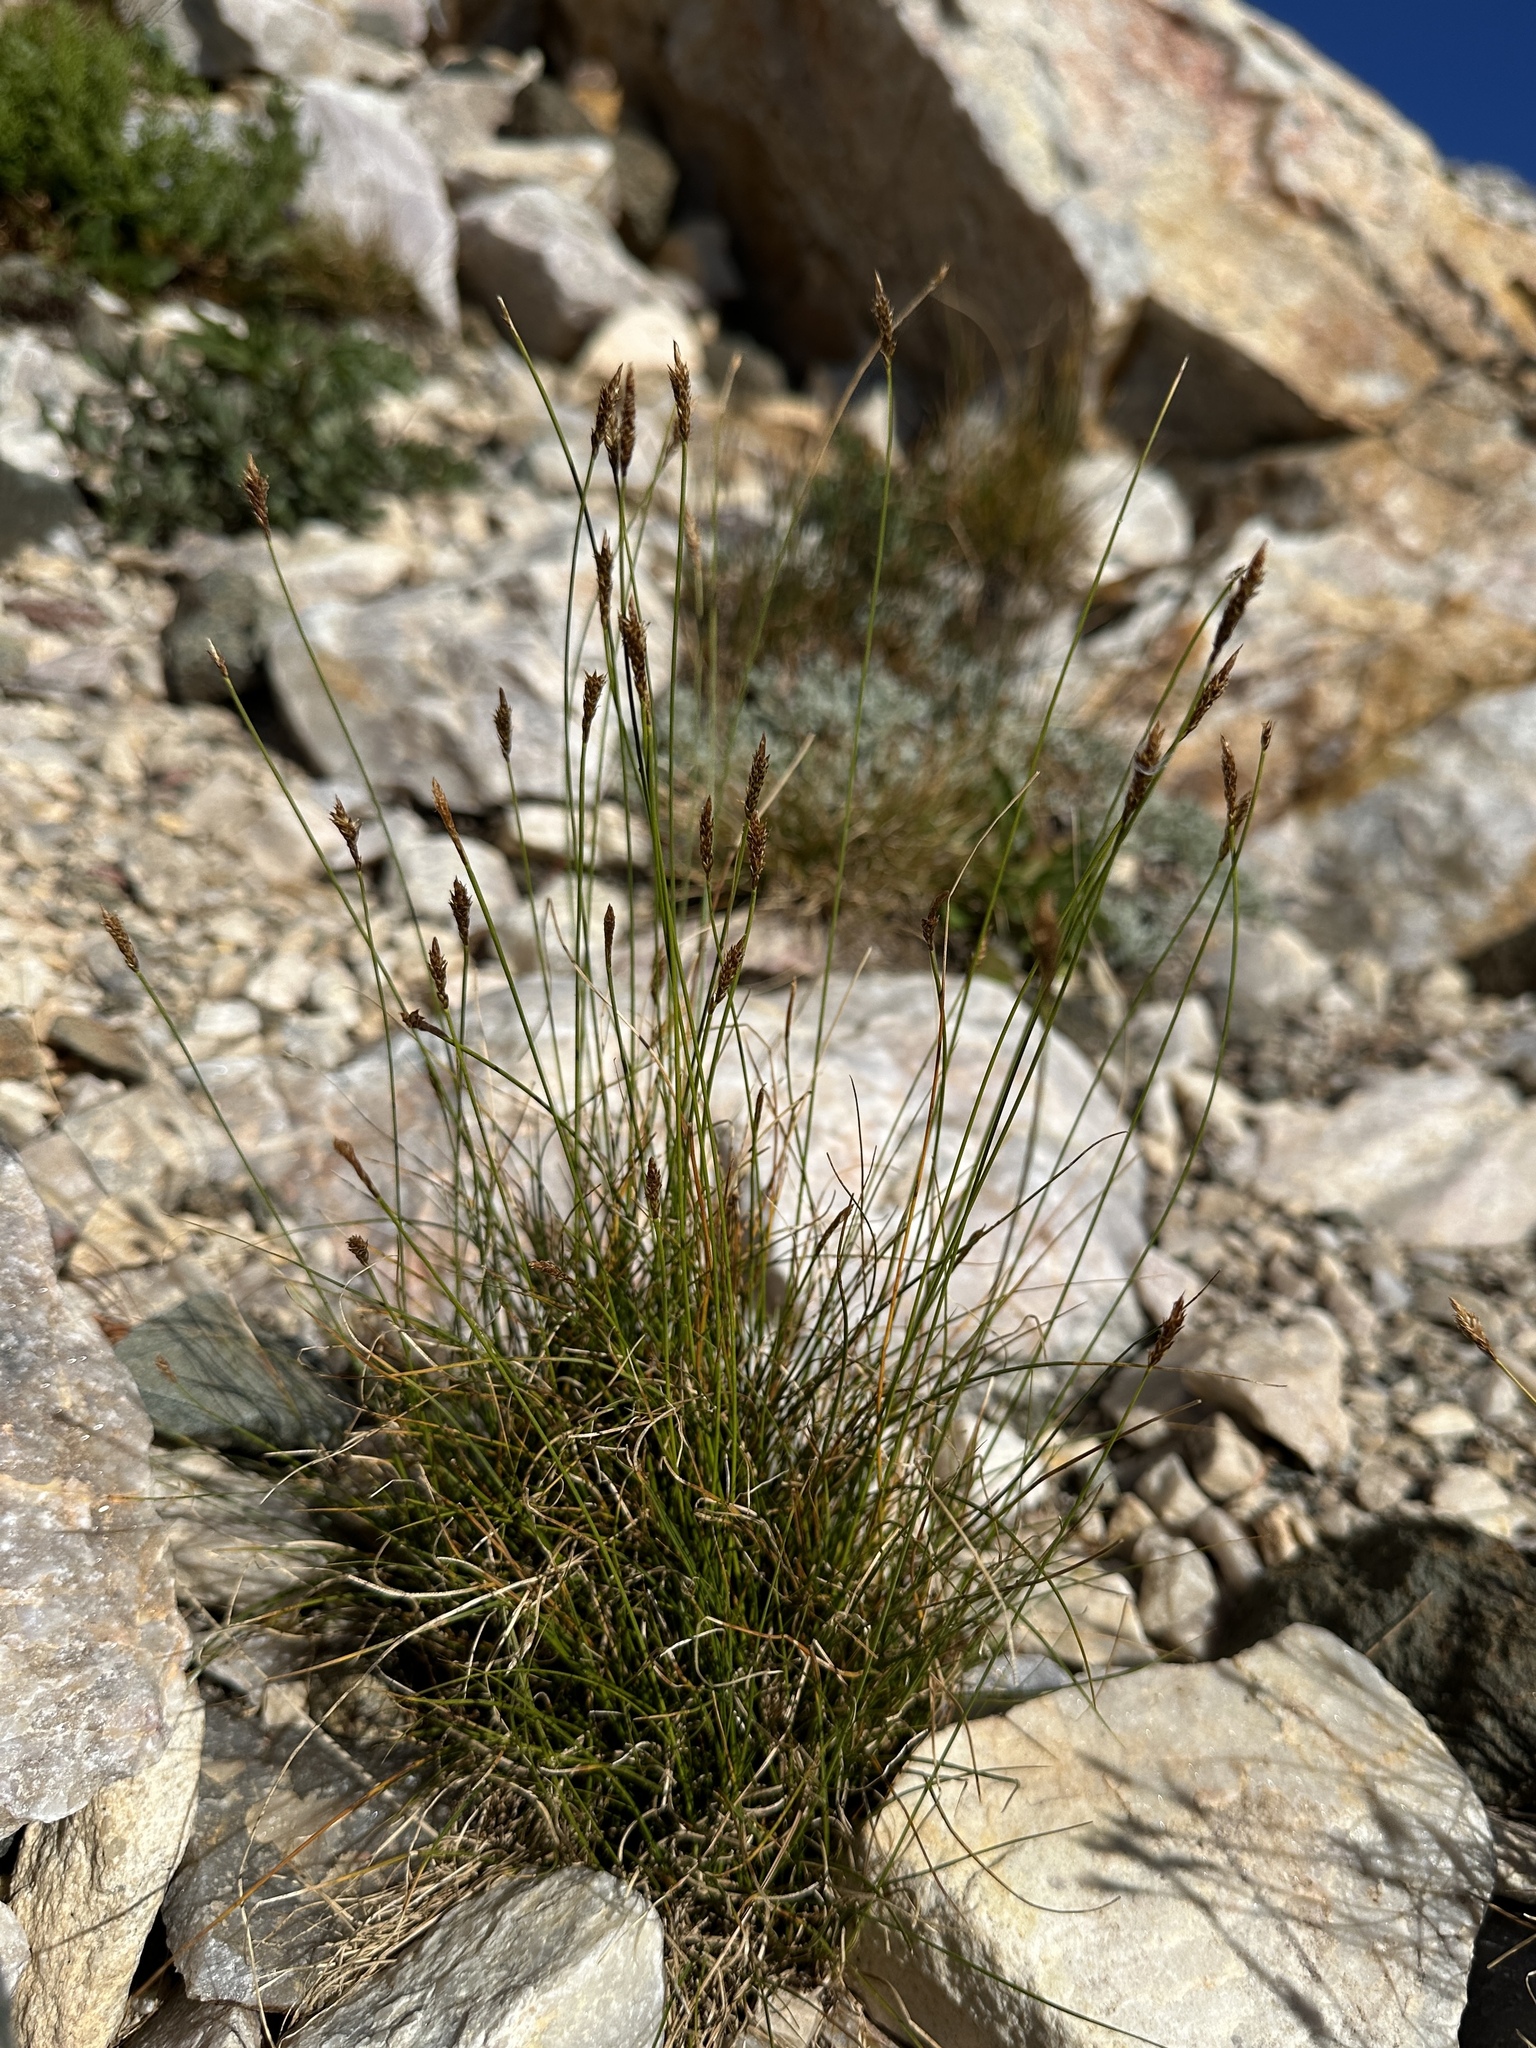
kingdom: Plantae
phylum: Tracheophyta
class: Liliopsida
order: Poales
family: Cyperaceae
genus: Carex
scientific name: Carex micropoda
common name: Small-rooted sedge
